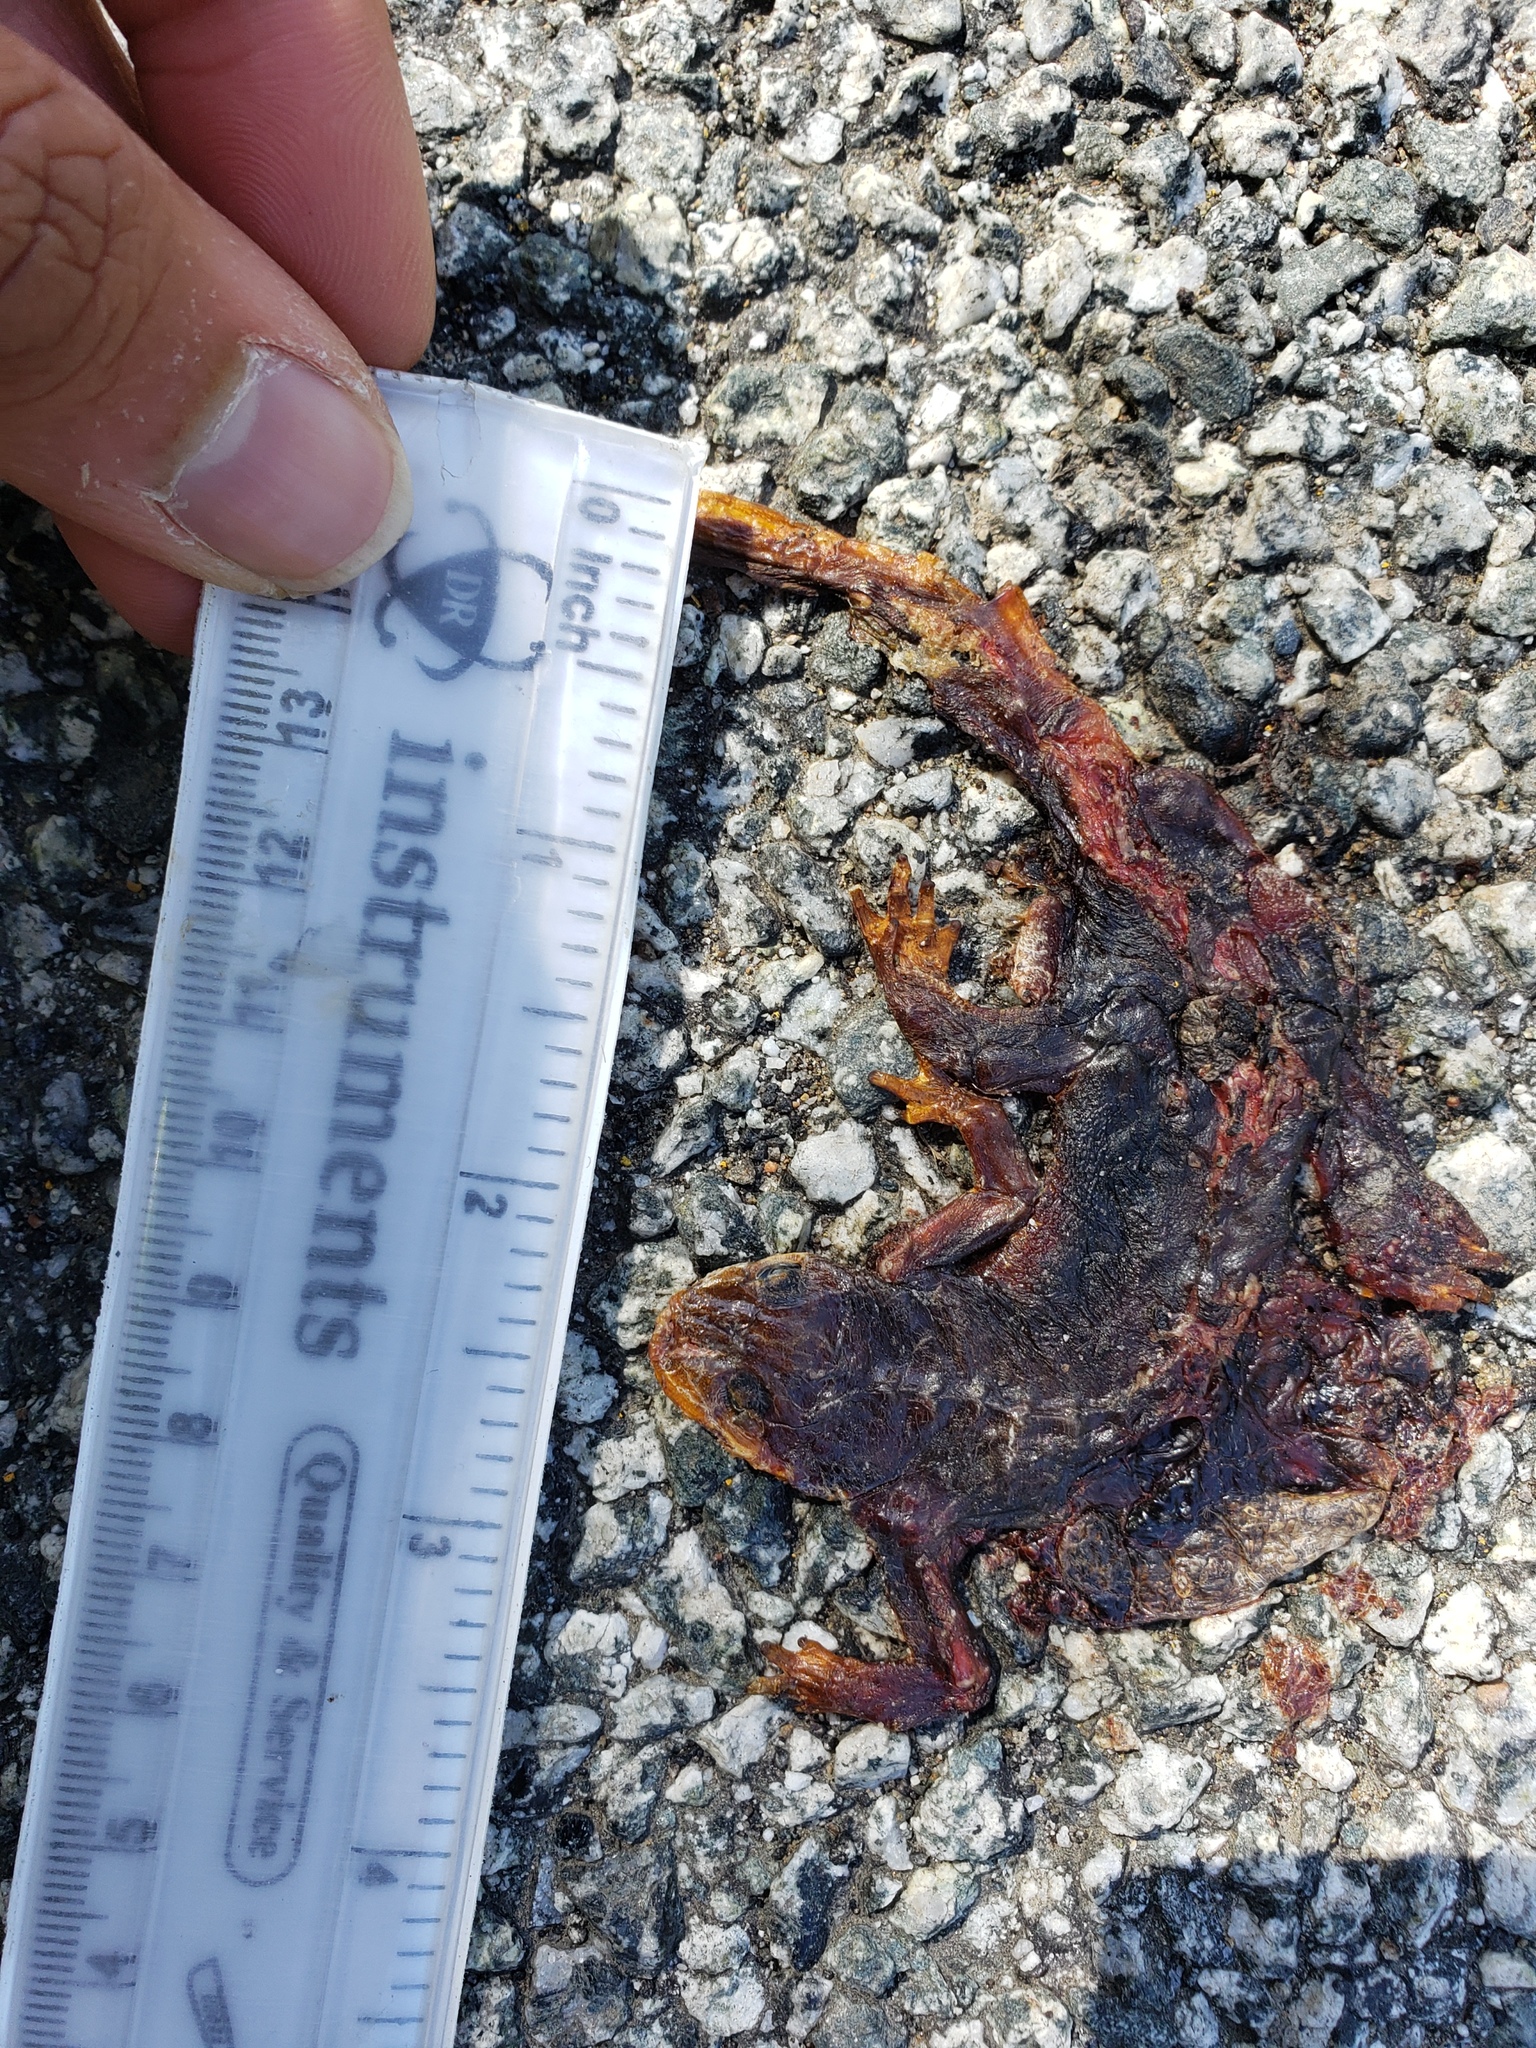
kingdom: Animalia
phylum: Chordata
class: Amphibia
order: Caudata
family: Salamandridae
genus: Taricha
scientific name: Taricha
